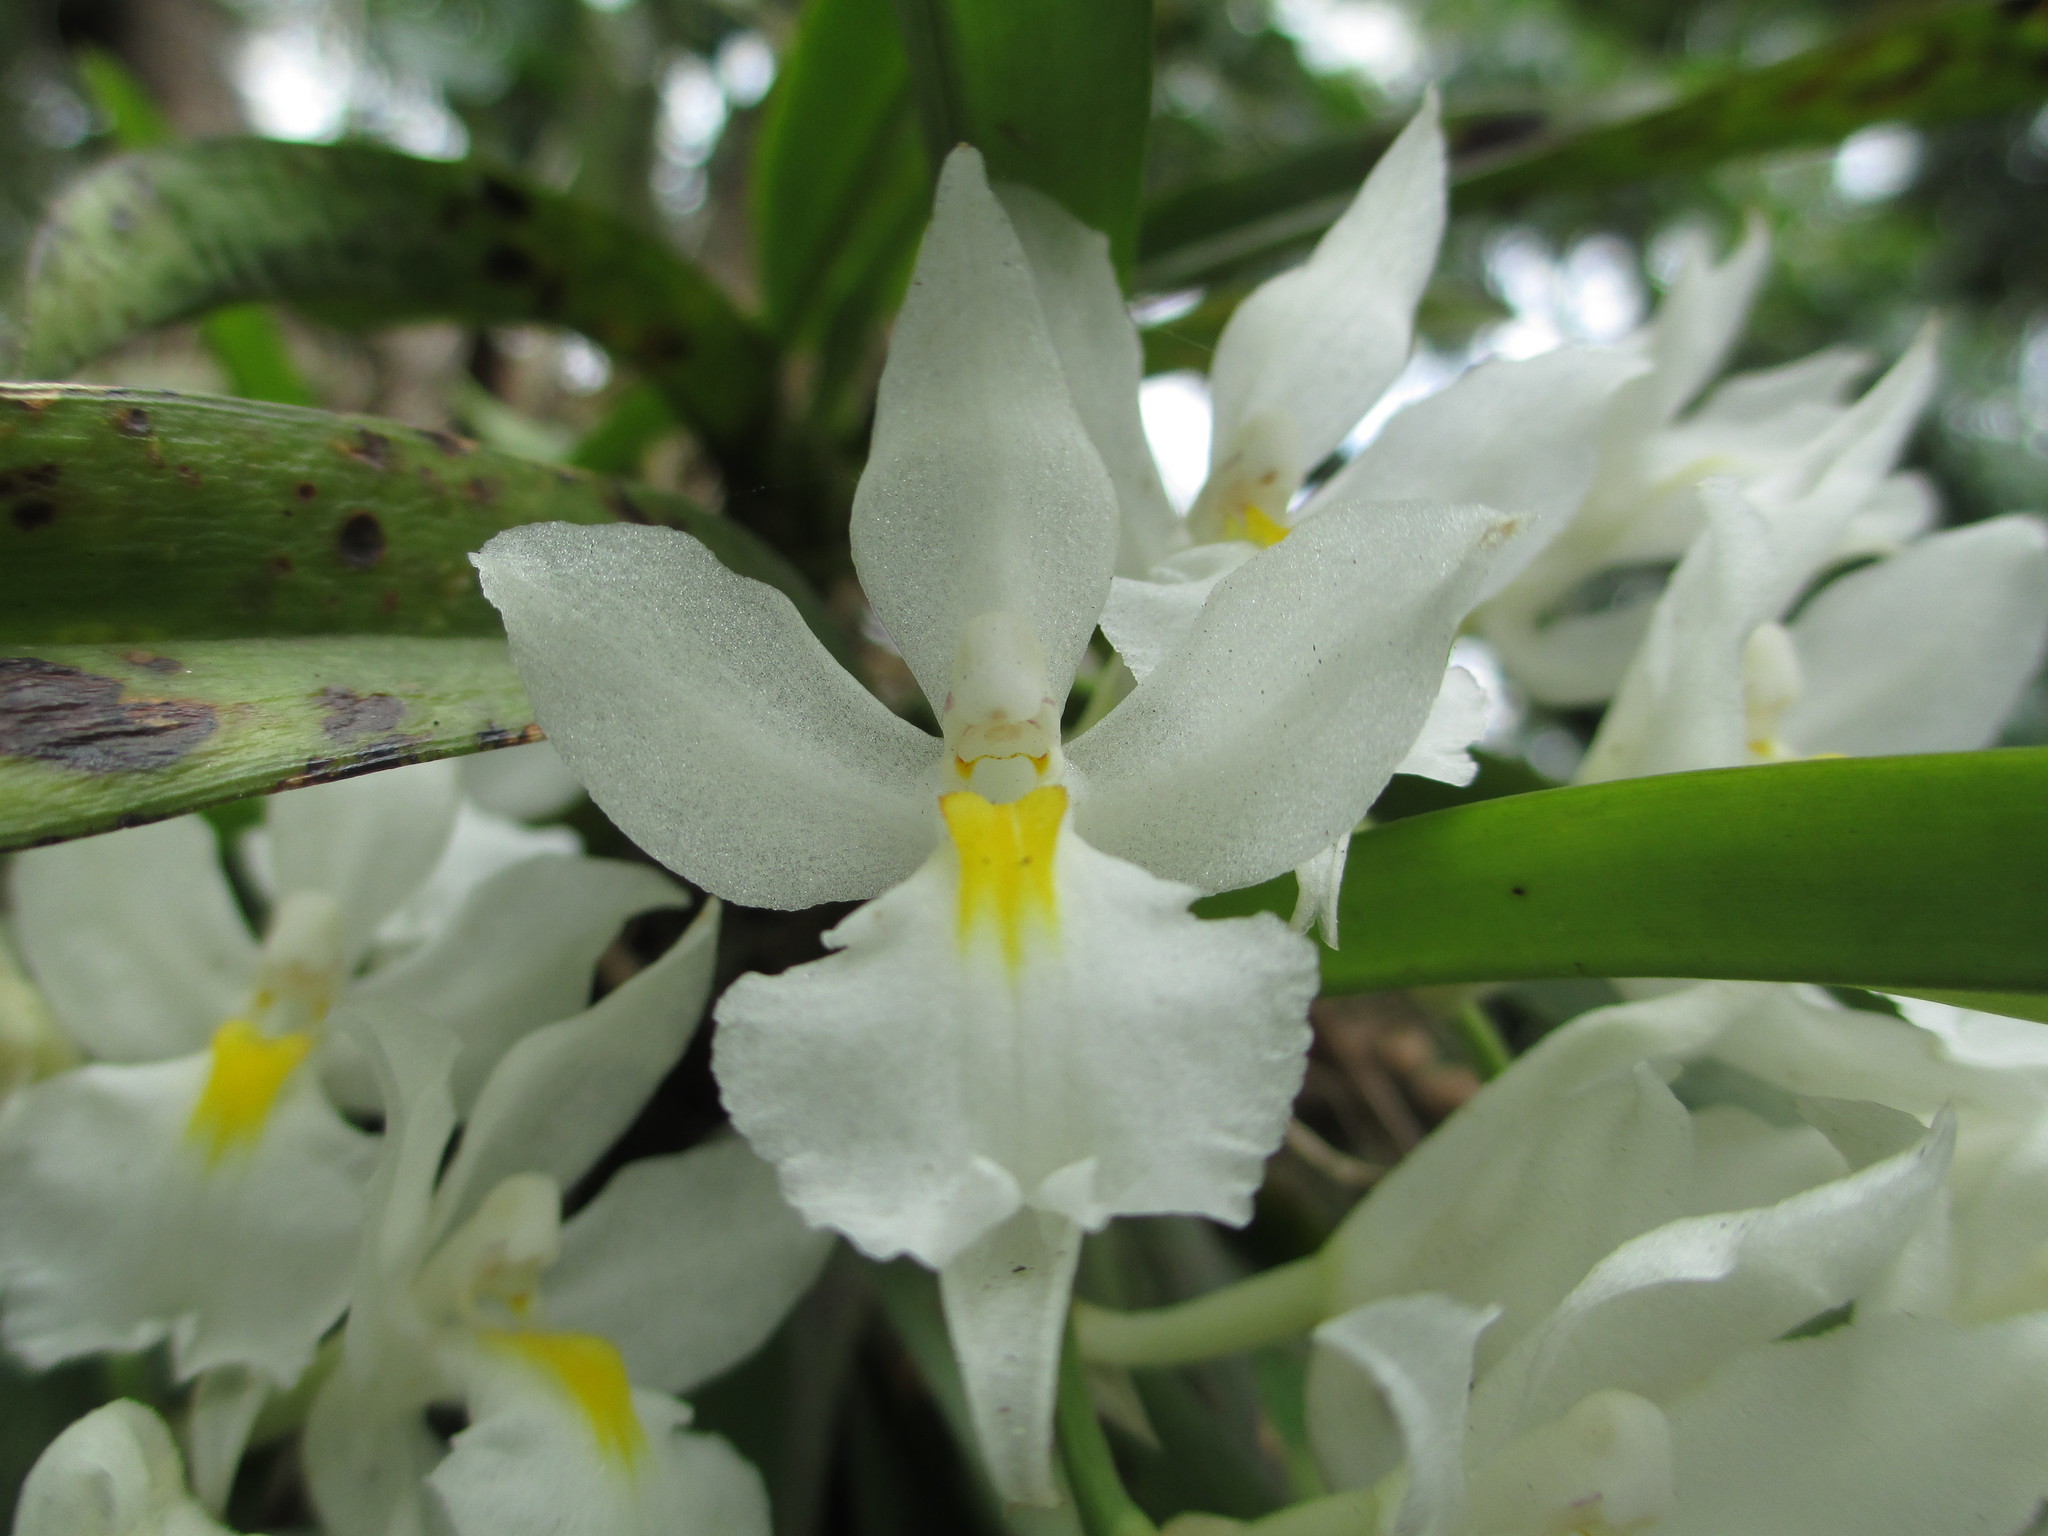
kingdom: Plantae
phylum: Tracheophyta
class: Liliopsida
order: Asparagales
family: Orchidaceae
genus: Rodriguezia
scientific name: Rodriguezia bracteata
